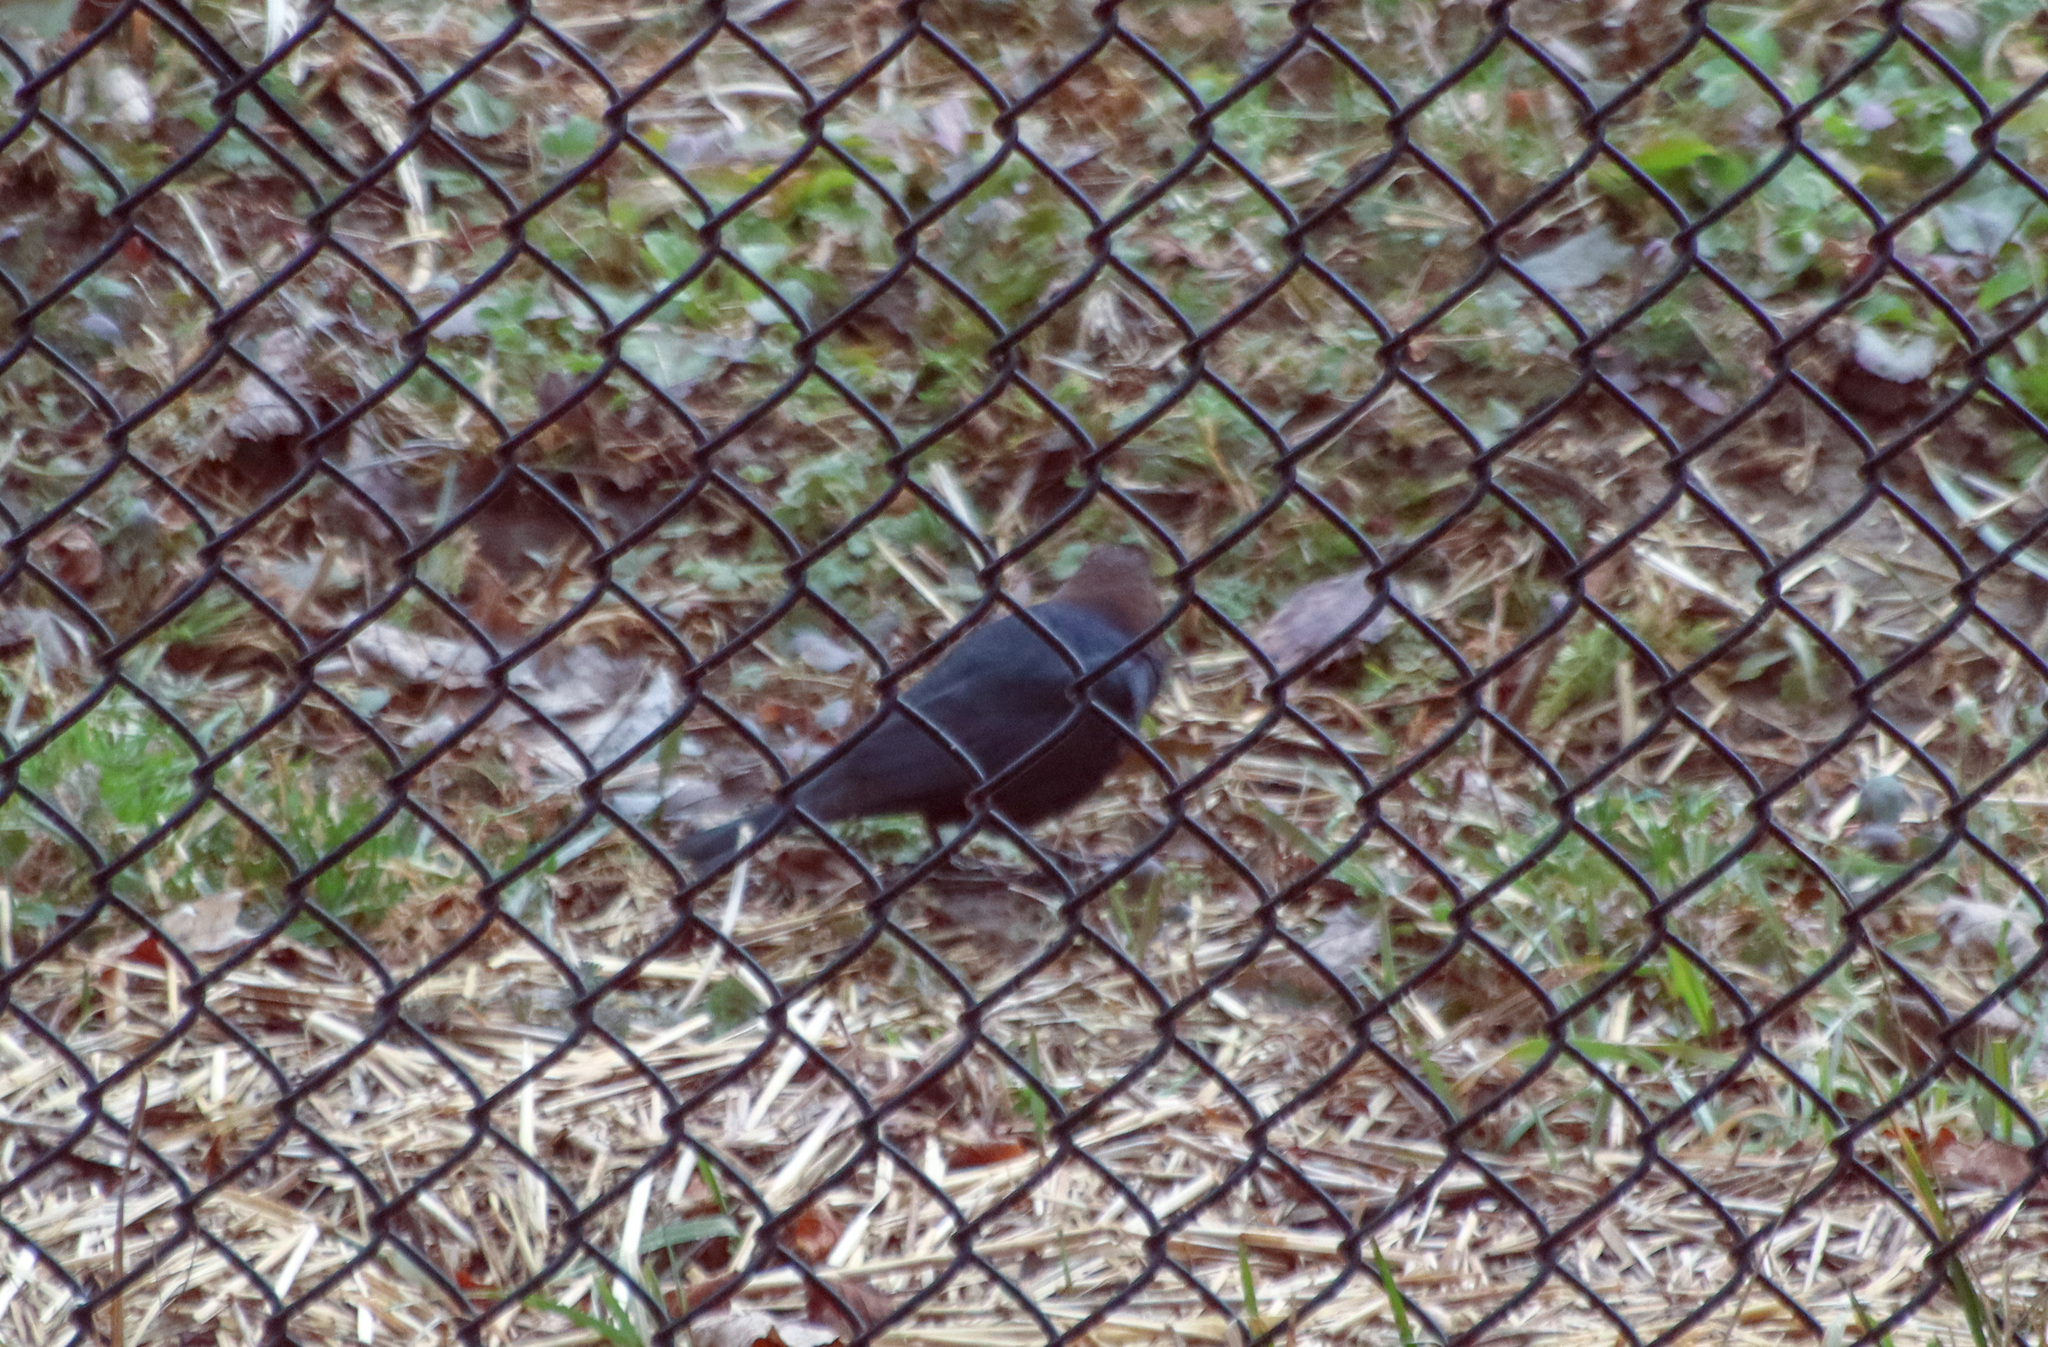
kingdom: Animalia
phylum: Chordata
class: Aves
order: Passeriformes
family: Icteridae
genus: Molothrus
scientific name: Molothrus ater
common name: Brown-headed cowbird
